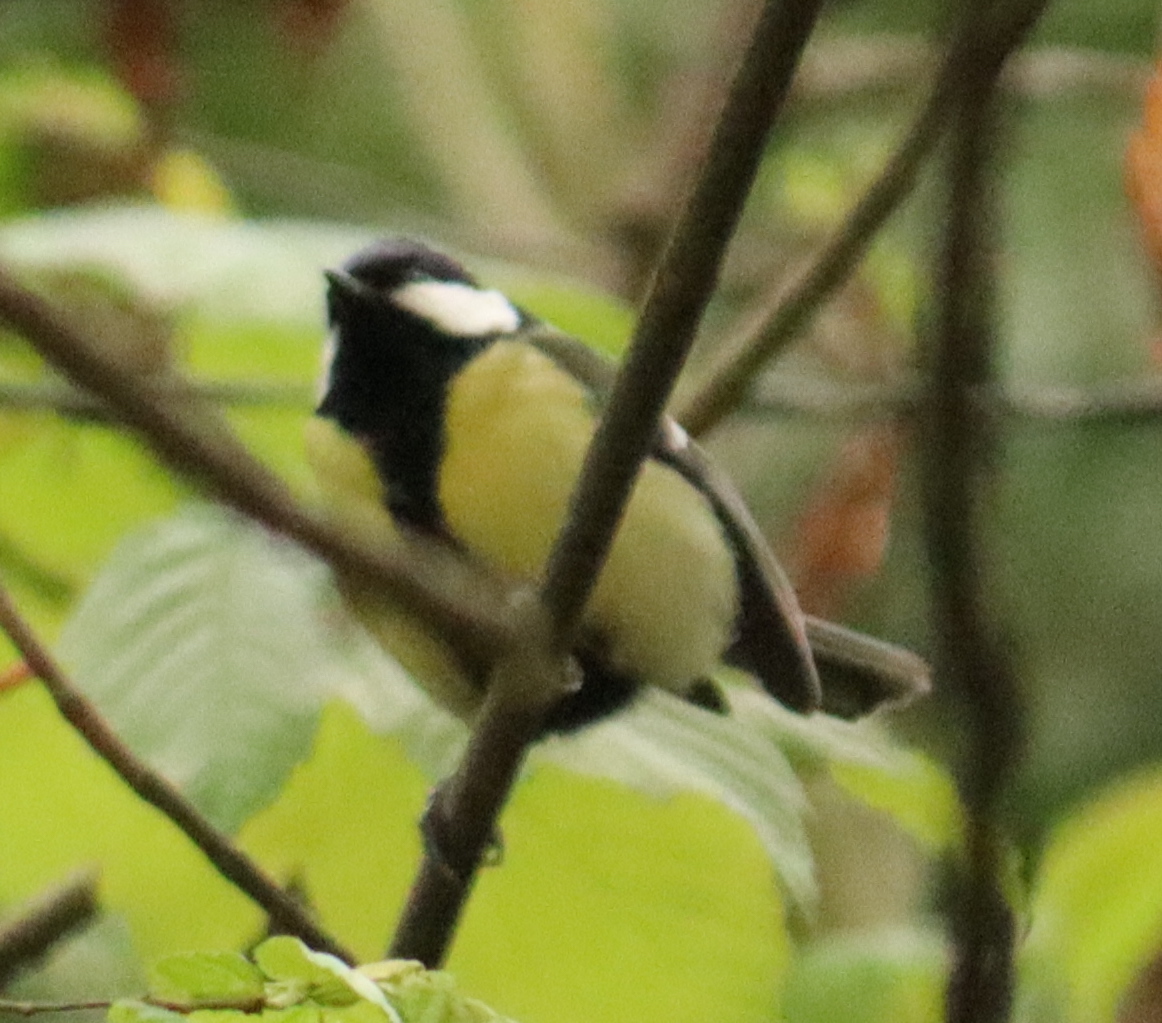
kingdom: Animalia
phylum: Chordata
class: Aves
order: Passeriformes
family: Paridae
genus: Parus
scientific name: Parus major
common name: Great tit
